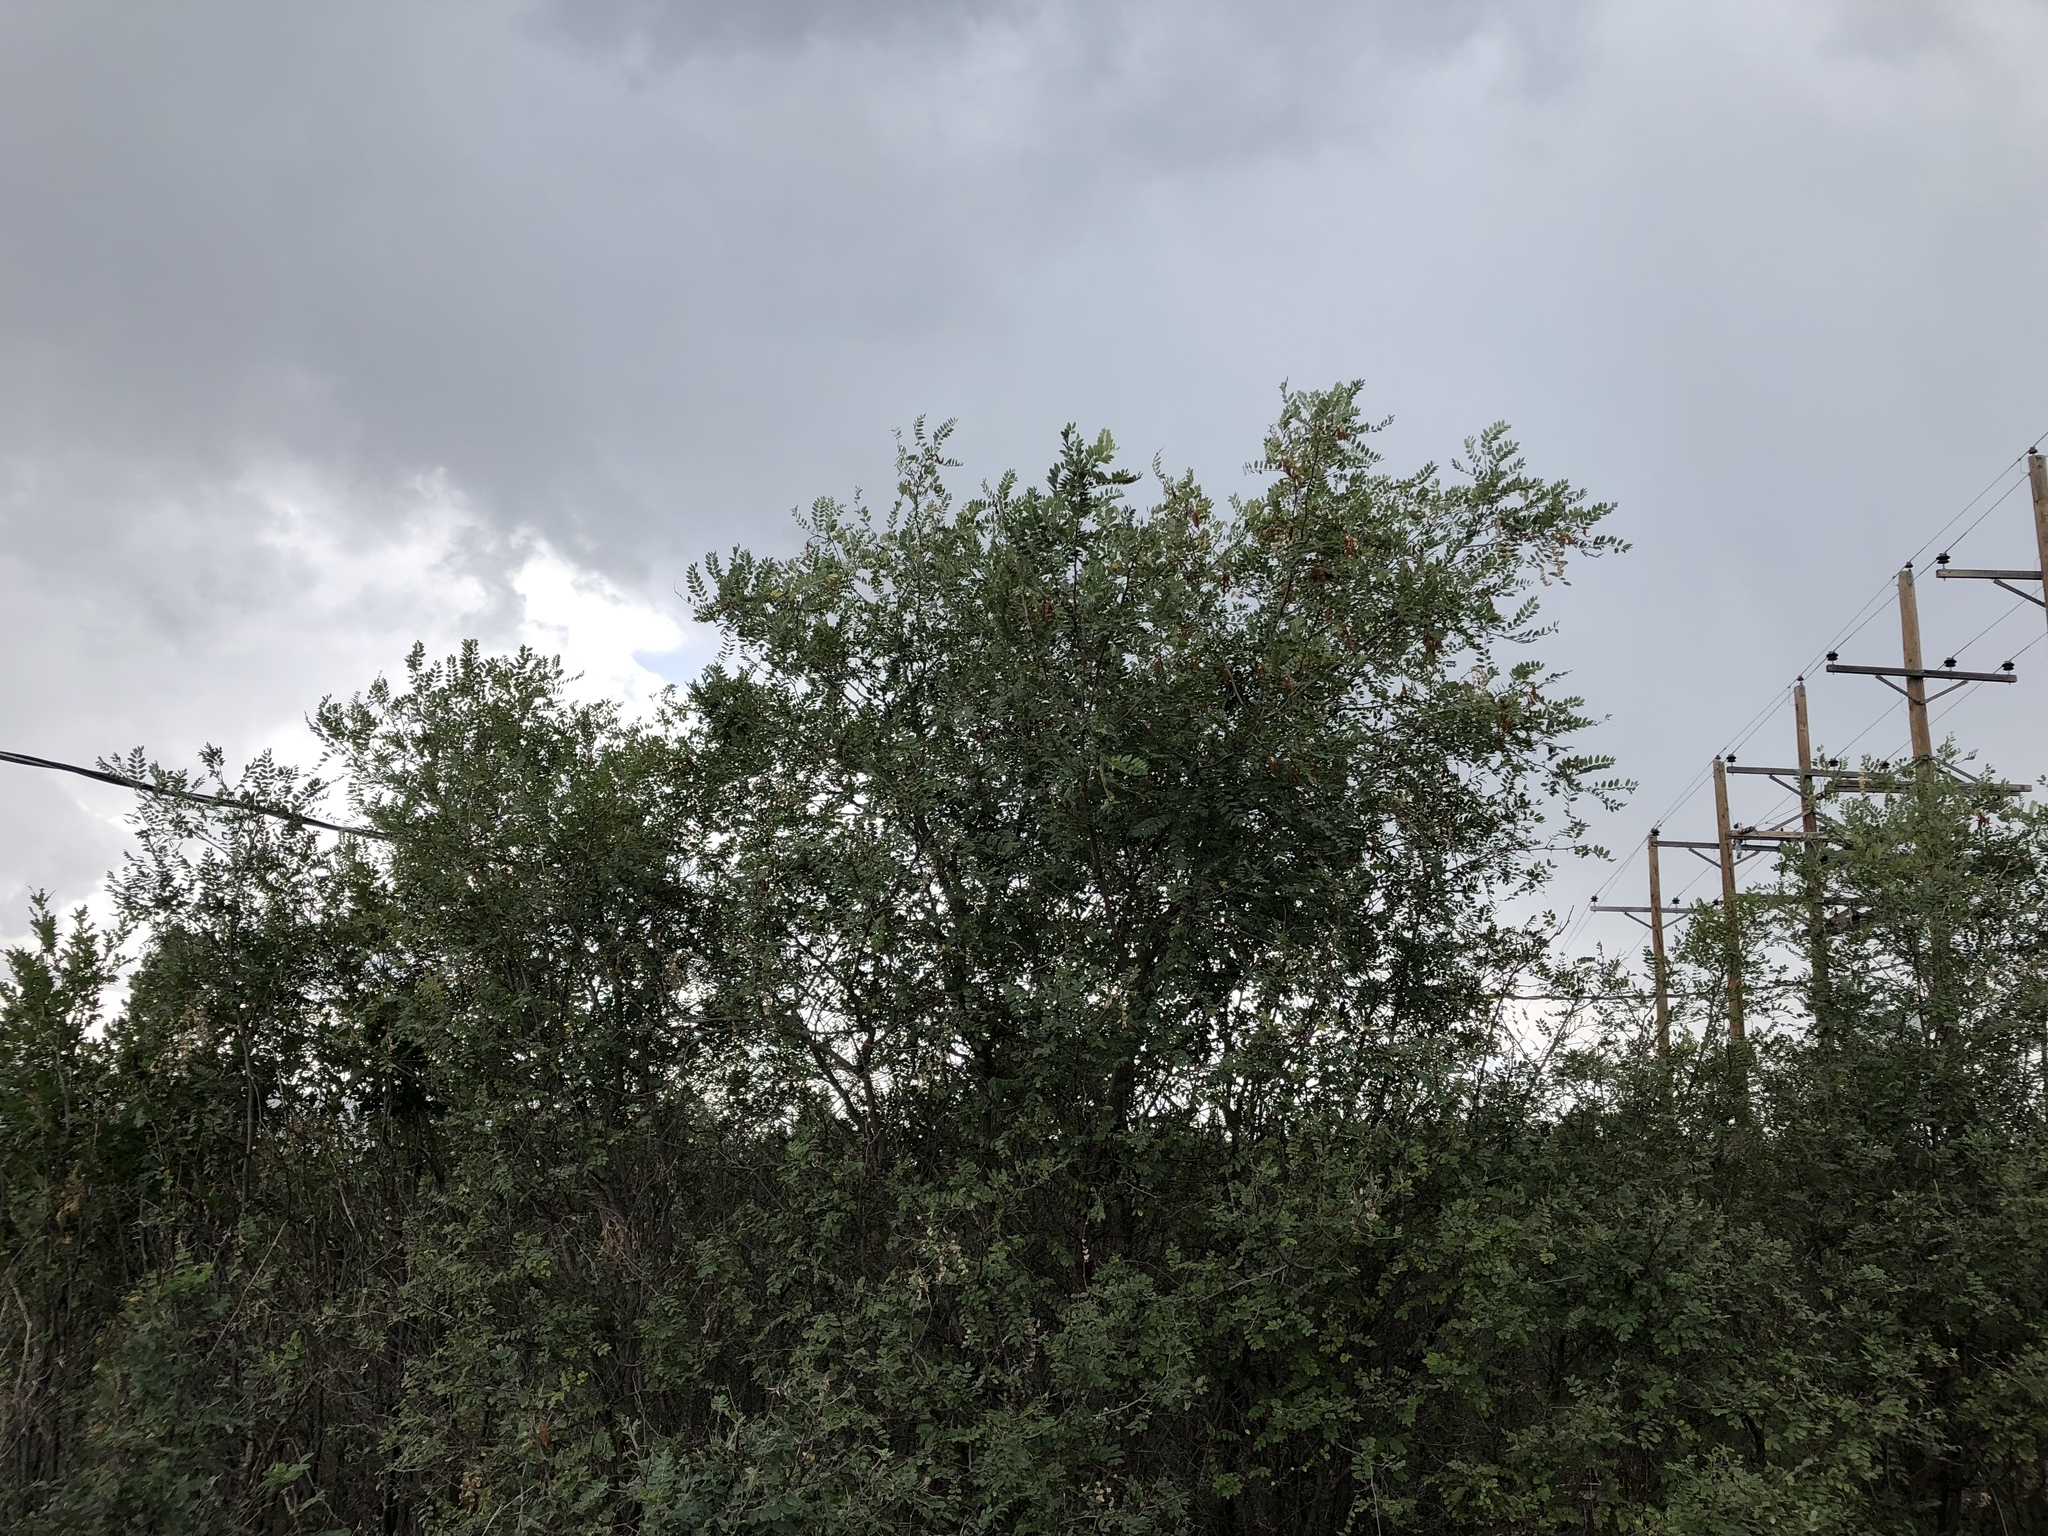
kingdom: Plantae
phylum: Tracheophyta
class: Magnoliopsida
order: Fabales
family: Fabaceae
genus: Robinia
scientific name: Robinia neomexicana
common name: New mexico locust
